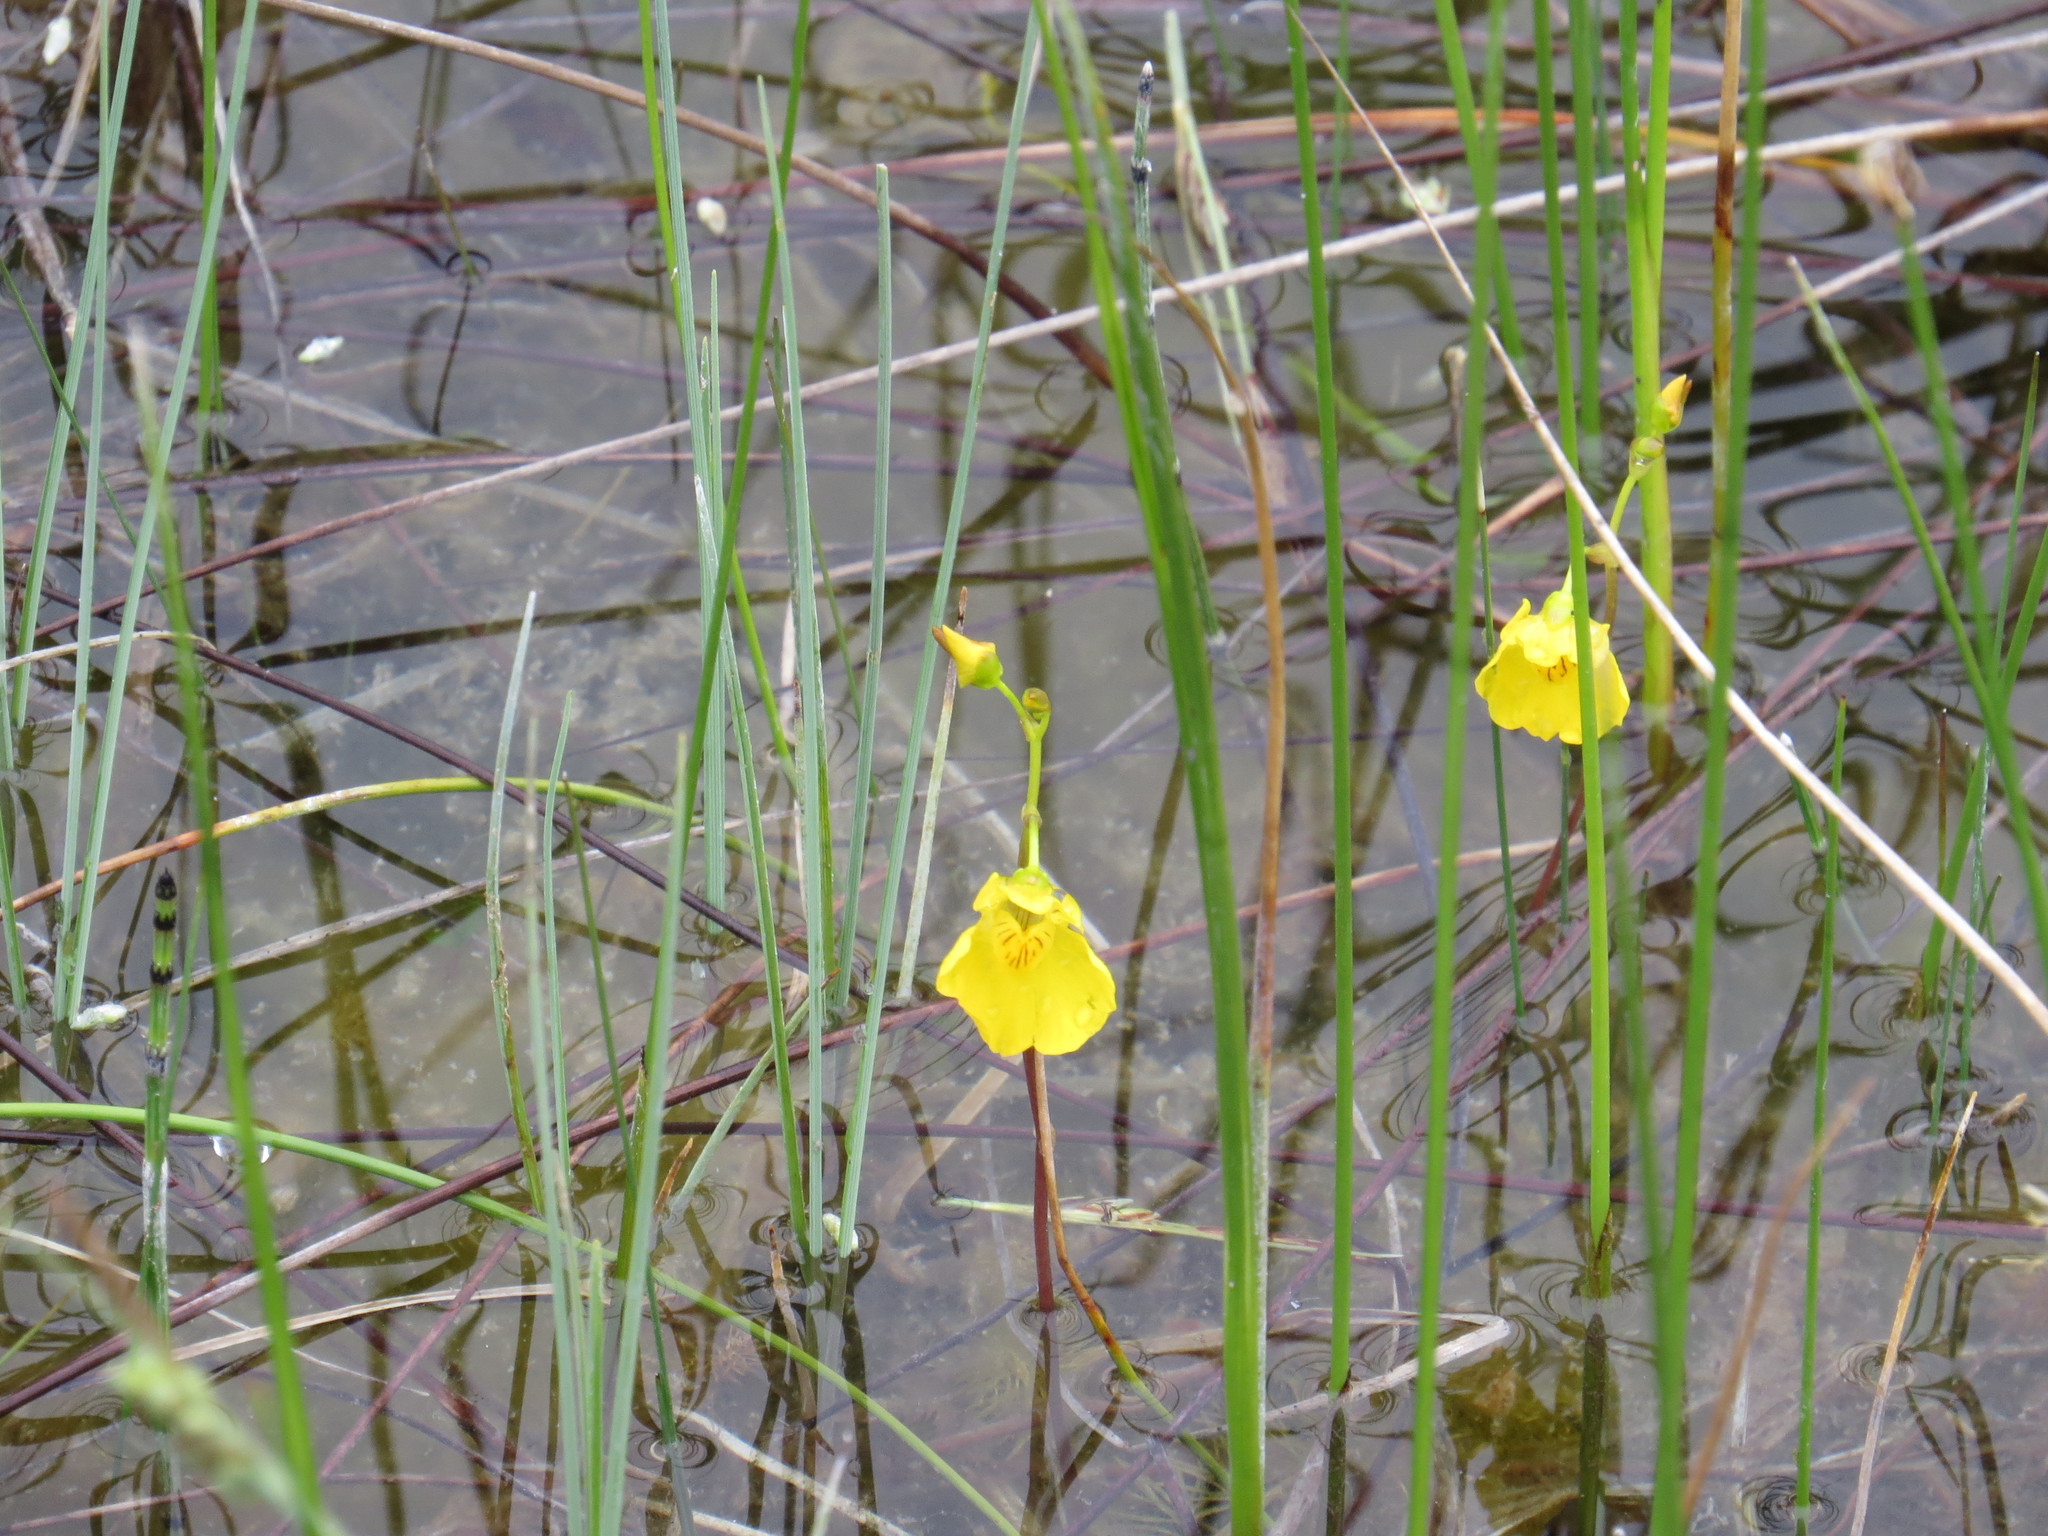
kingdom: Plantae
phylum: Tracheophyta
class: Magnoliopsida
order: Lamiales
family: Lentibulariaceae
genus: Utricularia
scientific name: Utricularia macrorhiza
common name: Common bladderwort
